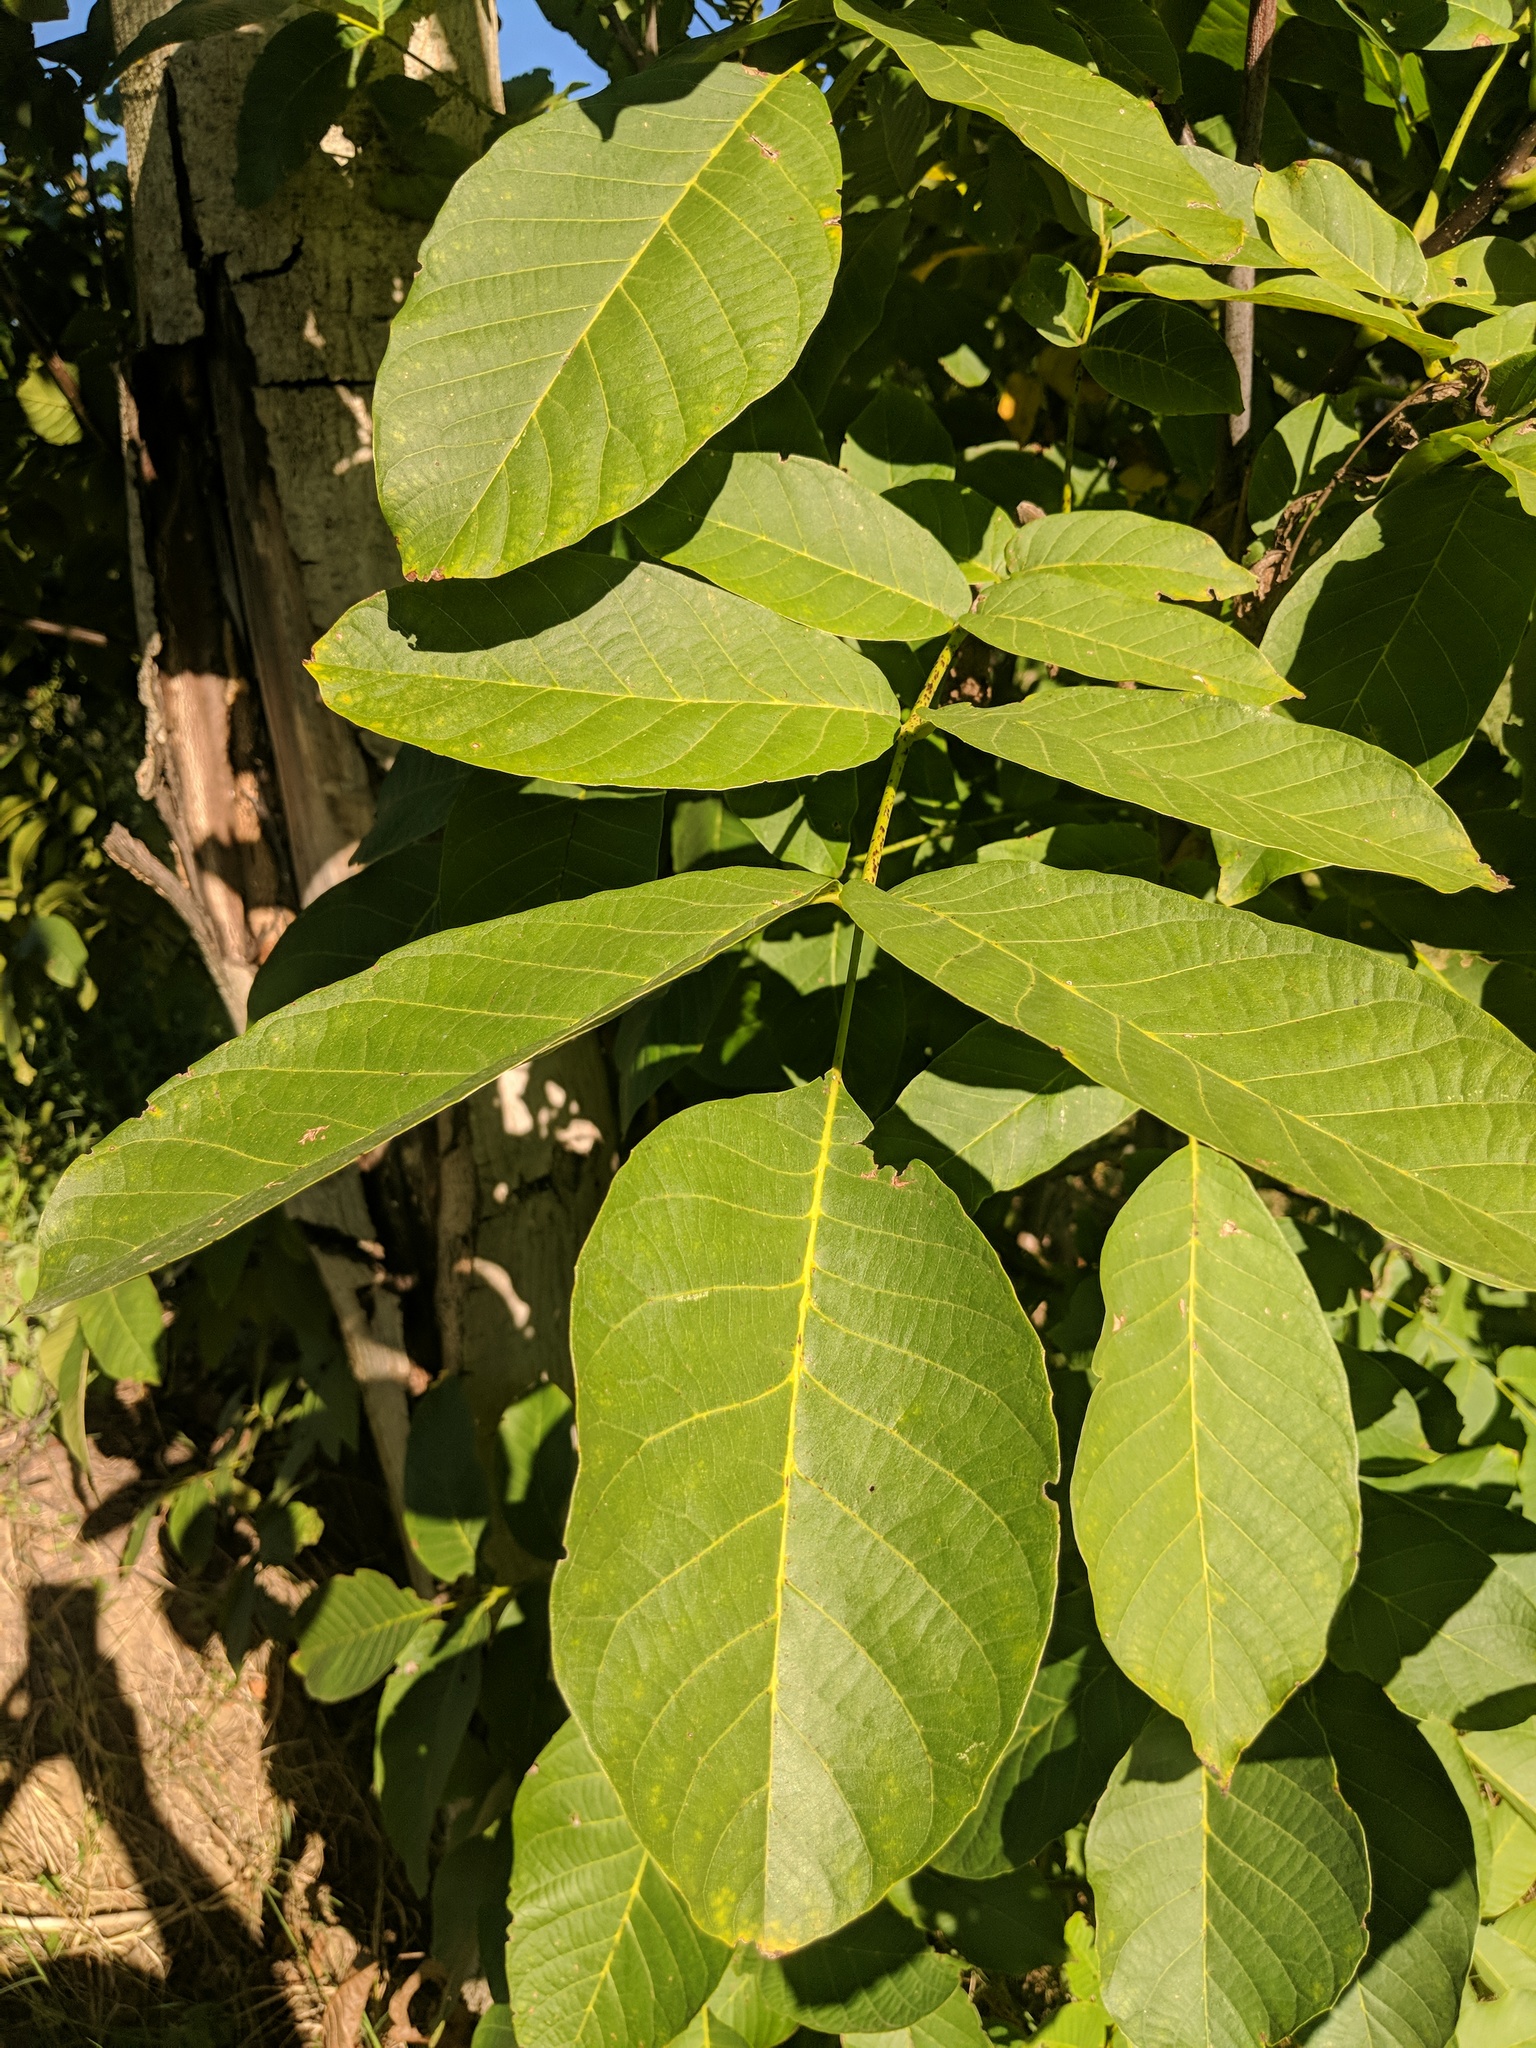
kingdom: Plantae
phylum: Tracheophyta
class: Magnoliopsida
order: Fagales
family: Juglandaceae
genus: Juglans
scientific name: Juglans regia
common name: Walnut
